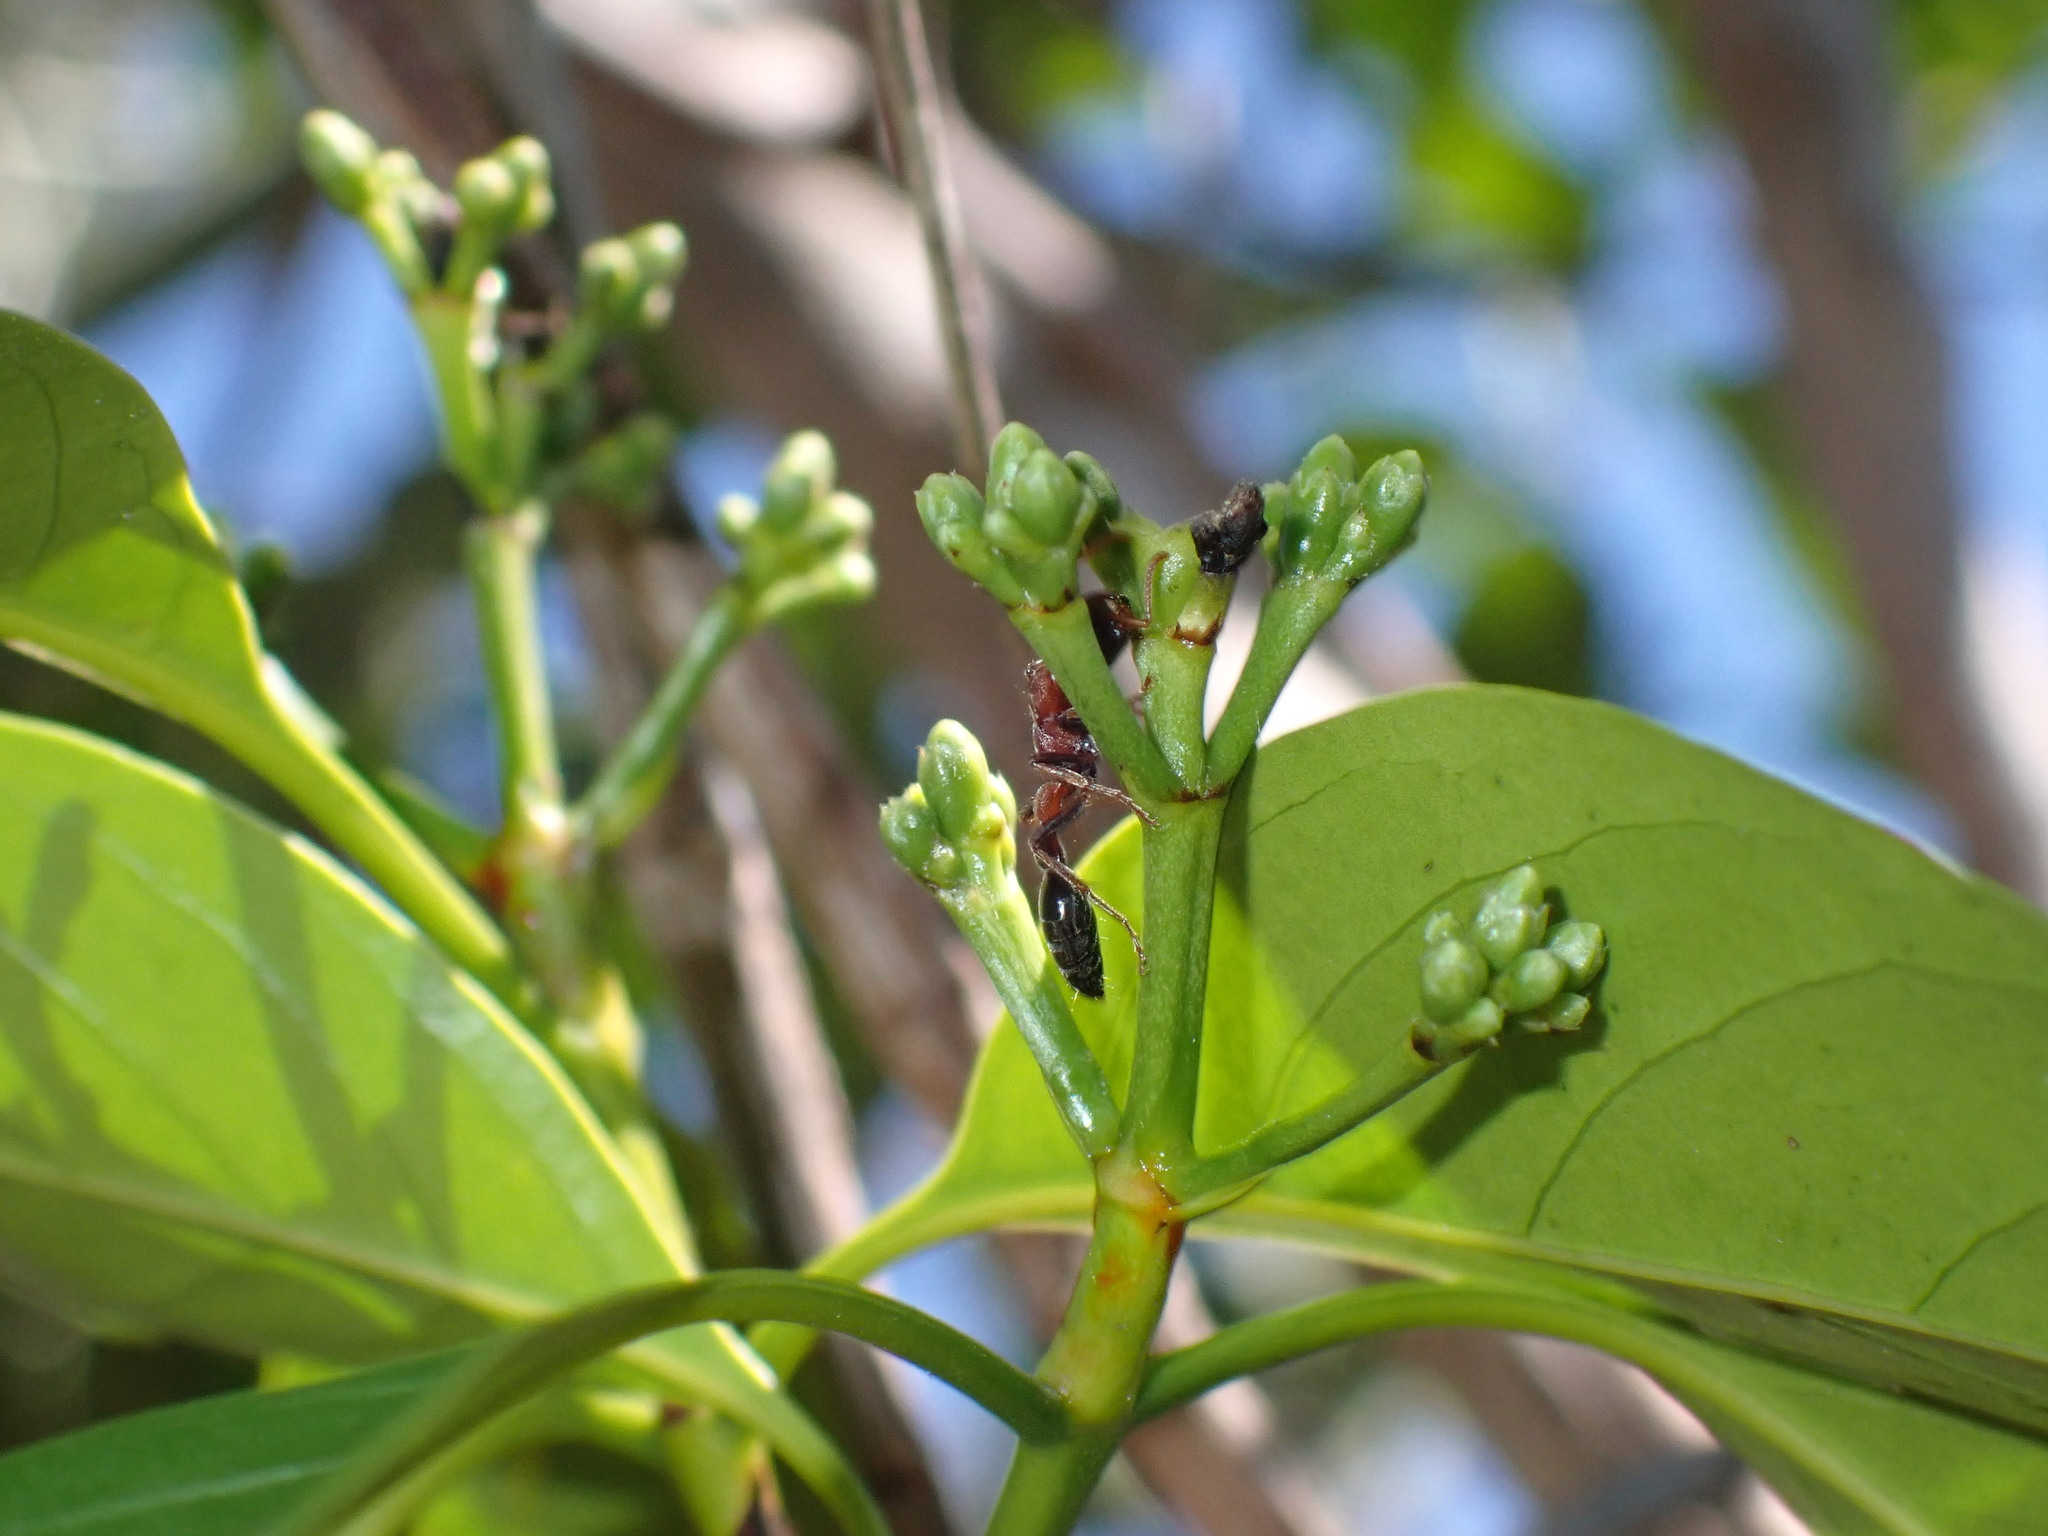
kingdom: Animalia
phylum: Arthropoda
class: Insecta
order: Hymenoptera
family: Formicidae
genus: Tetraponera
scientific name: Tetraponera rufonigra
